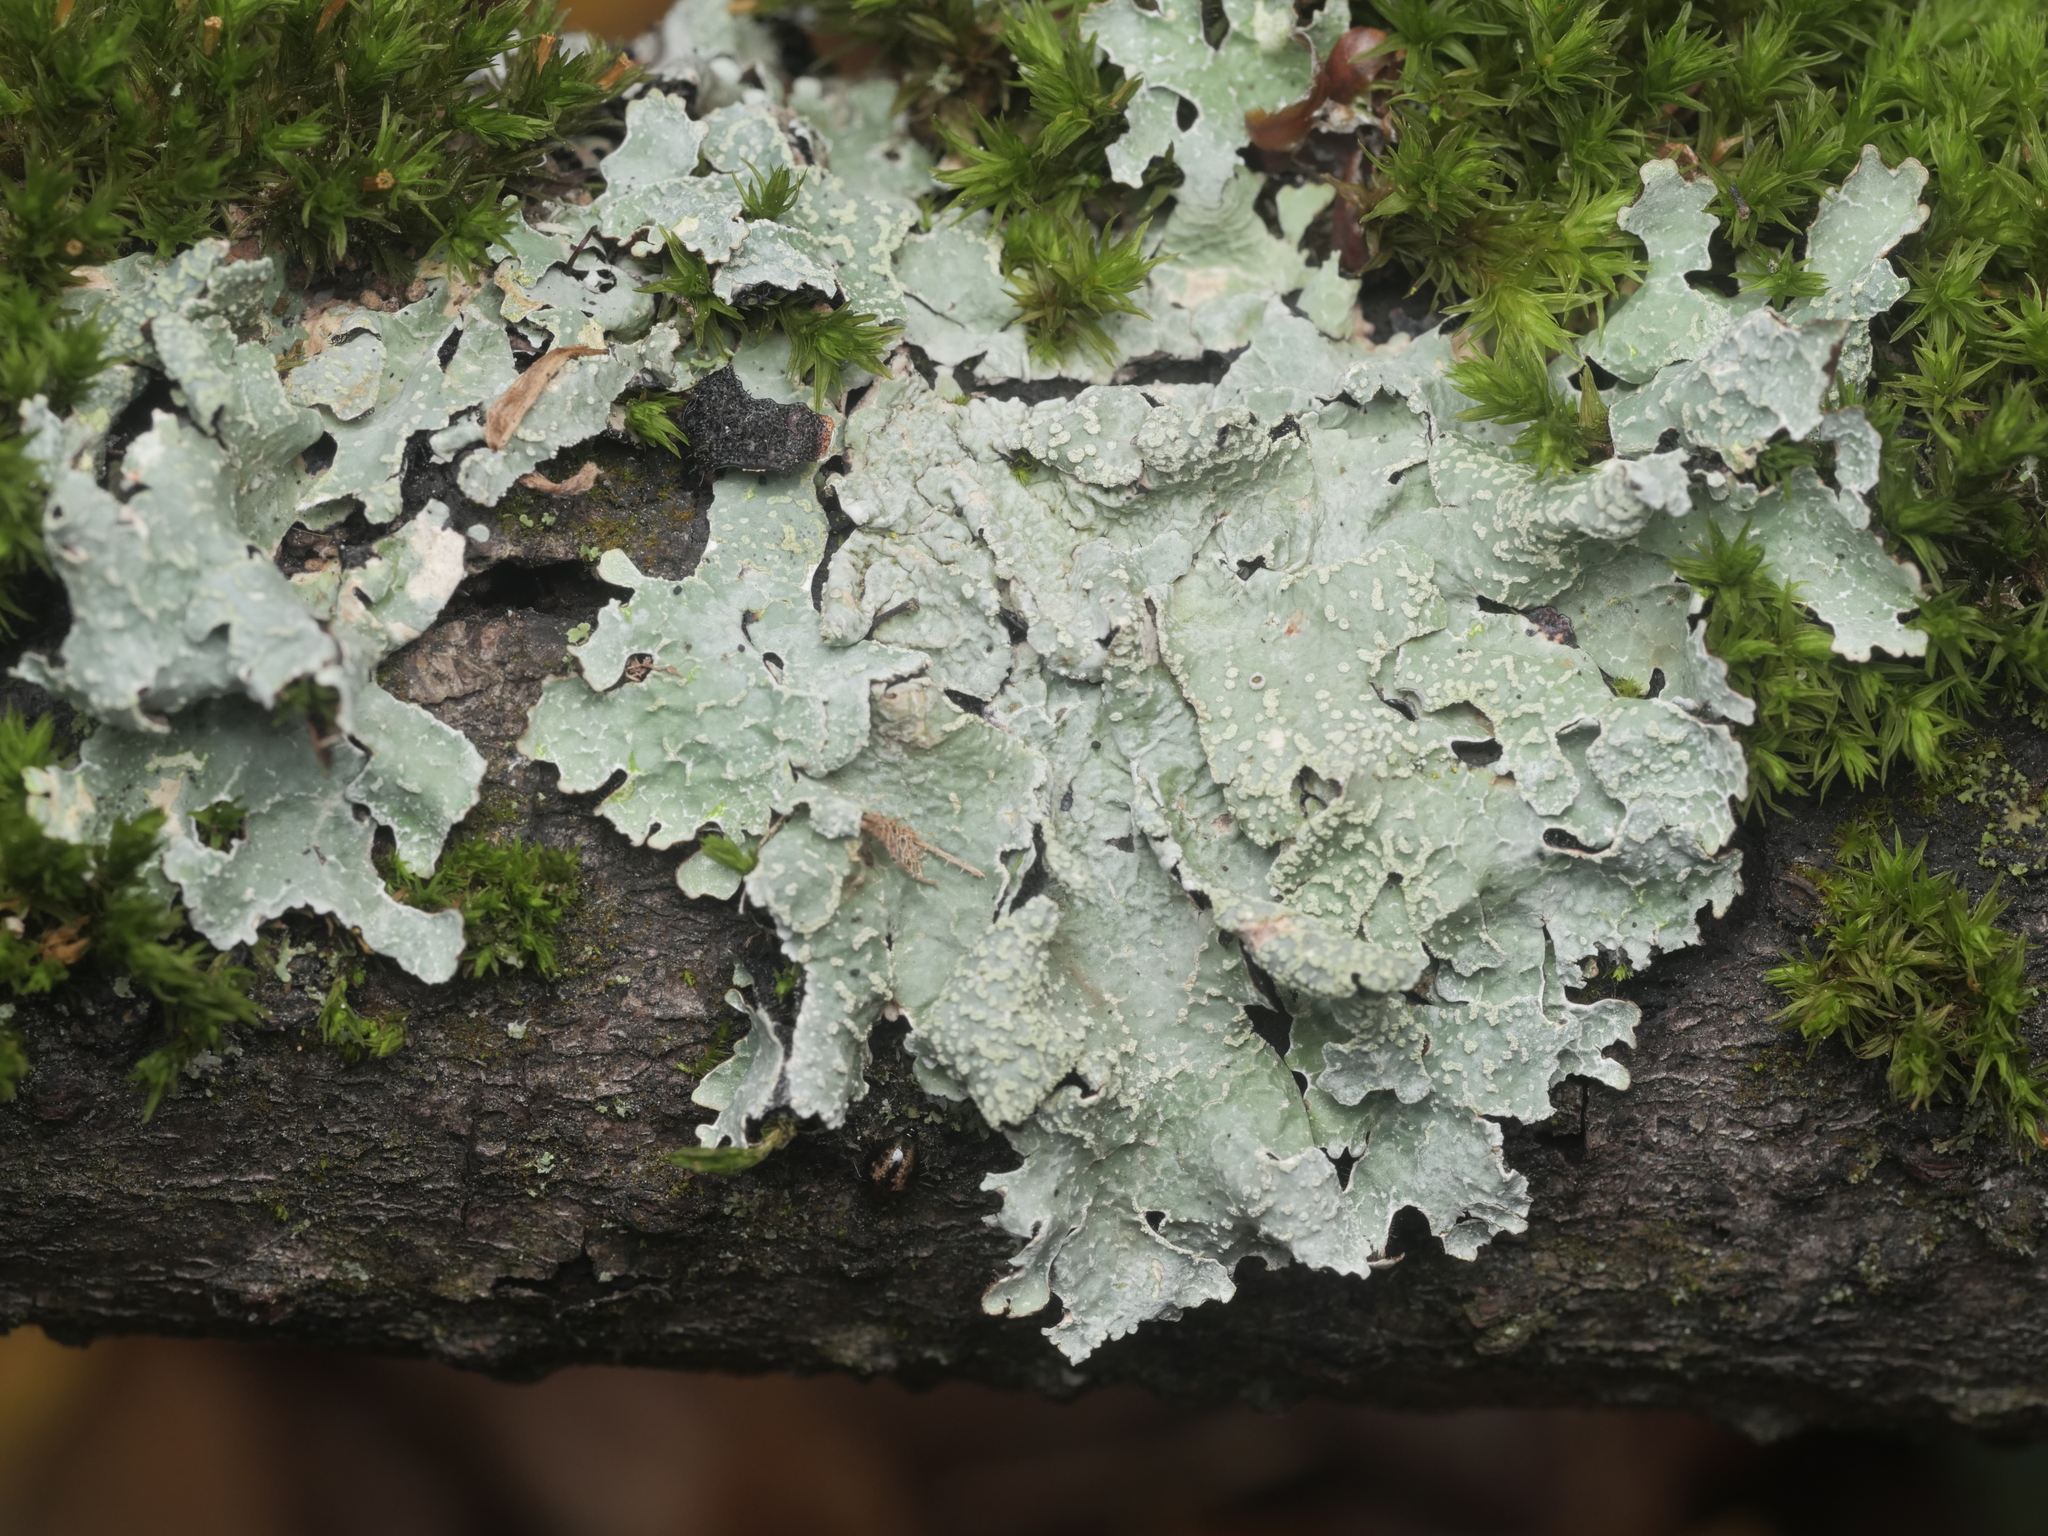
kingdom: Fungi
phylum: Ascomycota
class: Lecanoromycetes
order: Lecanorales
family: Parmeliaceae
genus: Parmelia
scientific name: Parmelia sulcata
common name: Netted shield lichen
